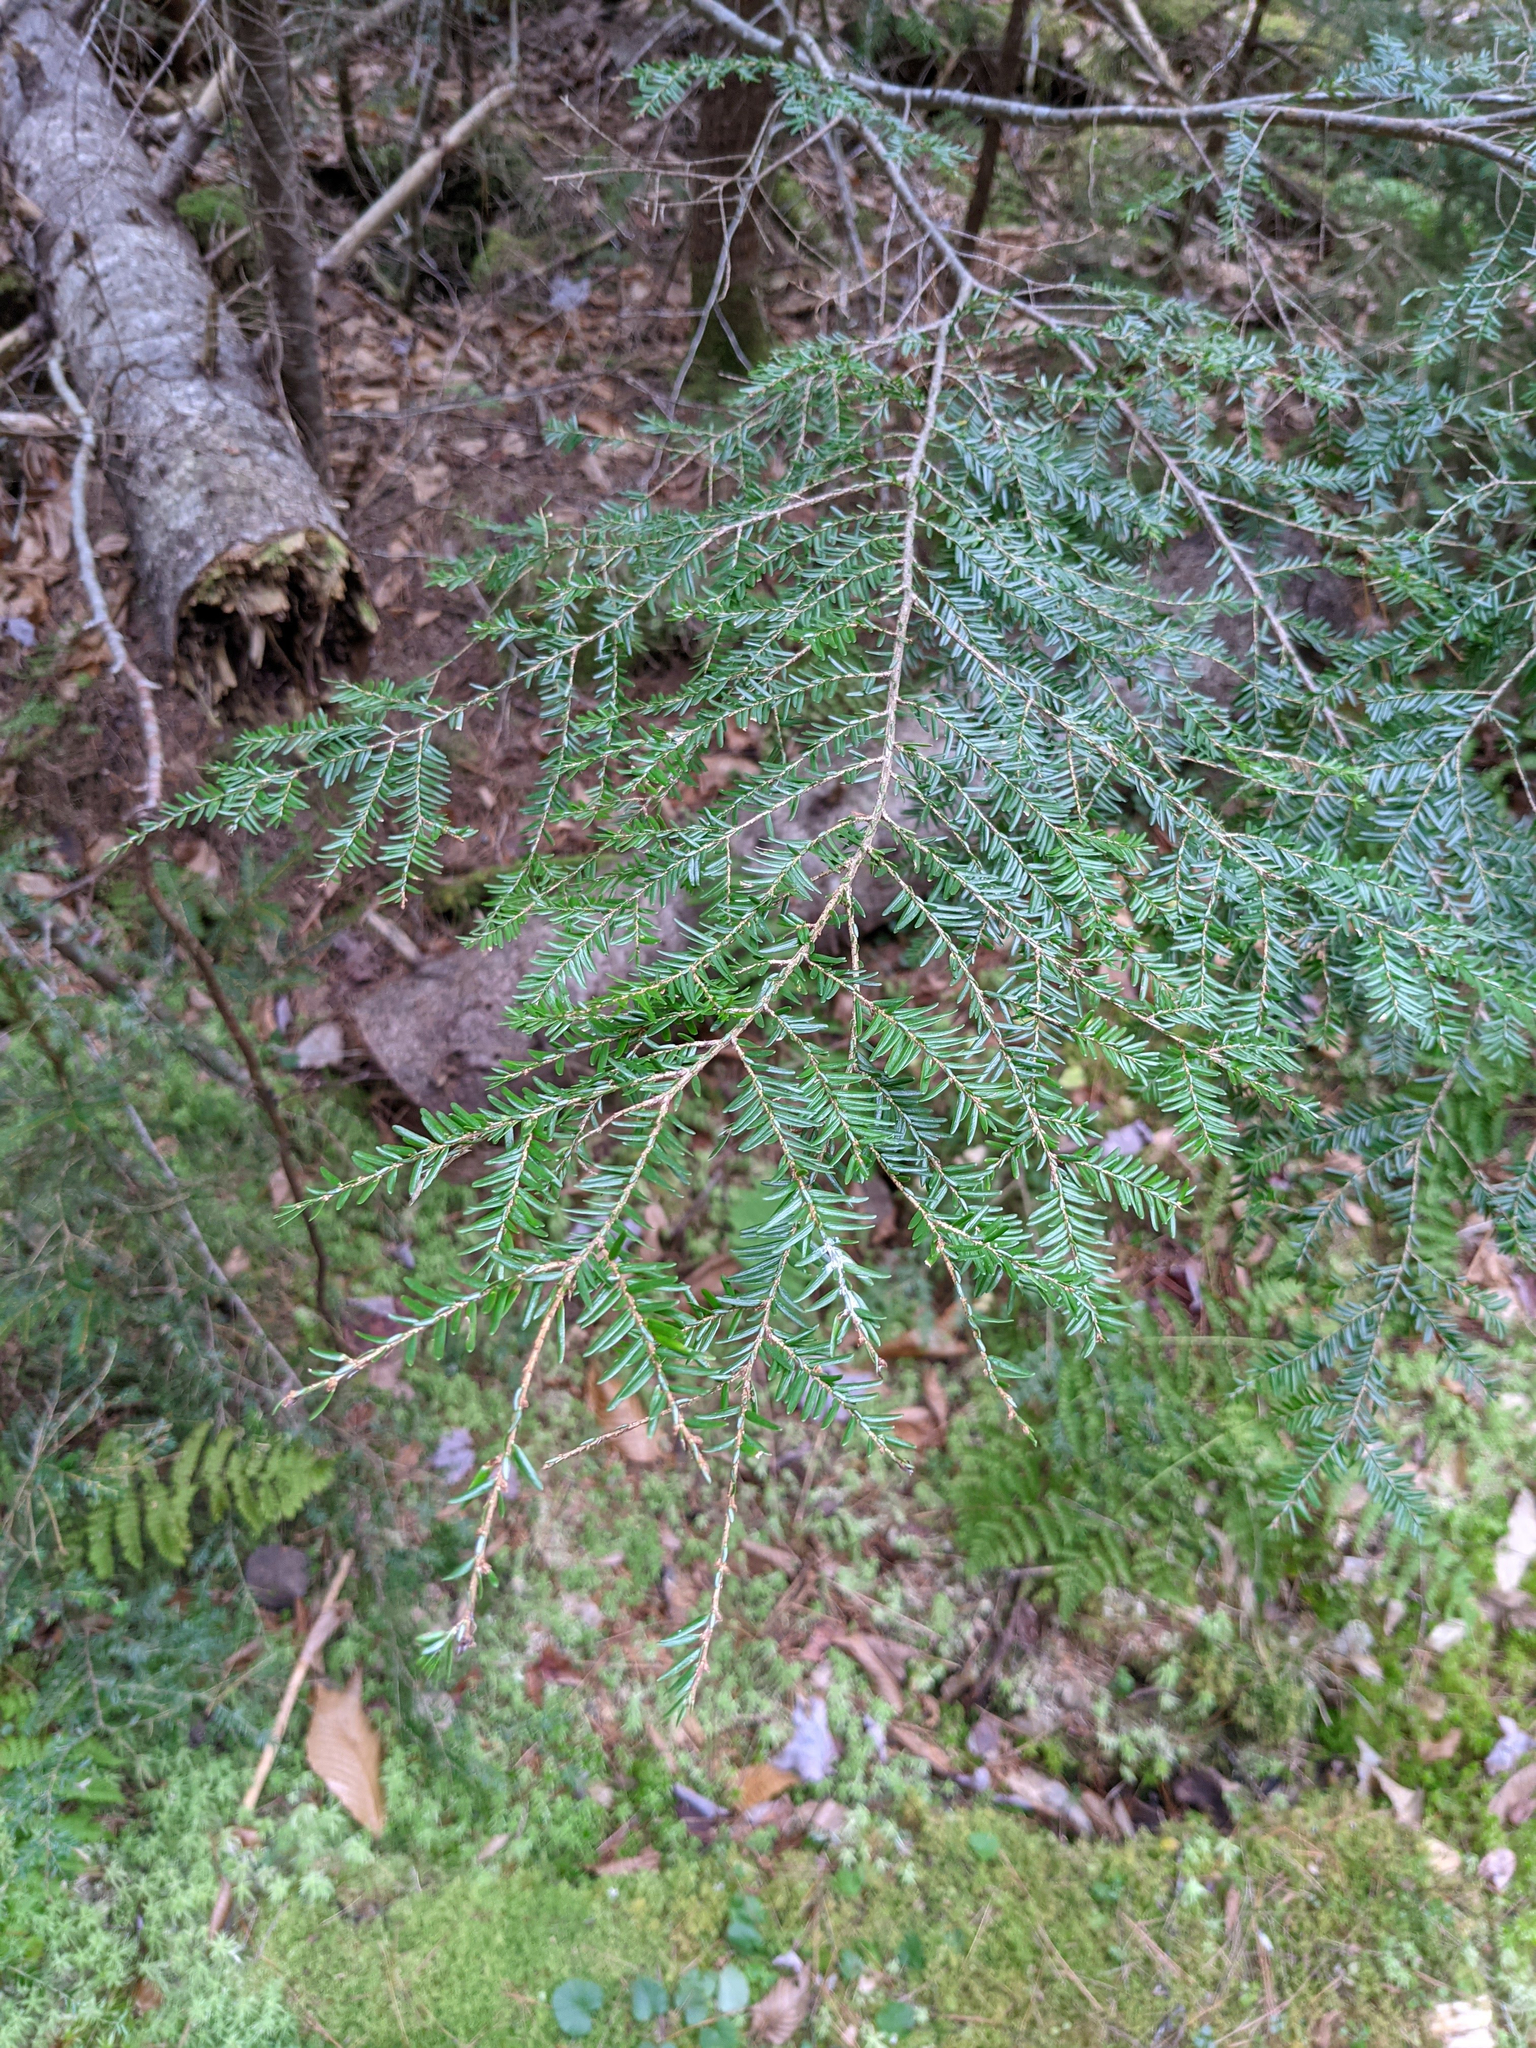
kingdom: Plantae
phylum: Tracheophyta
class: Pinopsida
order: Pinales
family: Pinaceae
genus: Tsuga
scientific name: Tsuga canadensis
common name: Eastern hemlock
